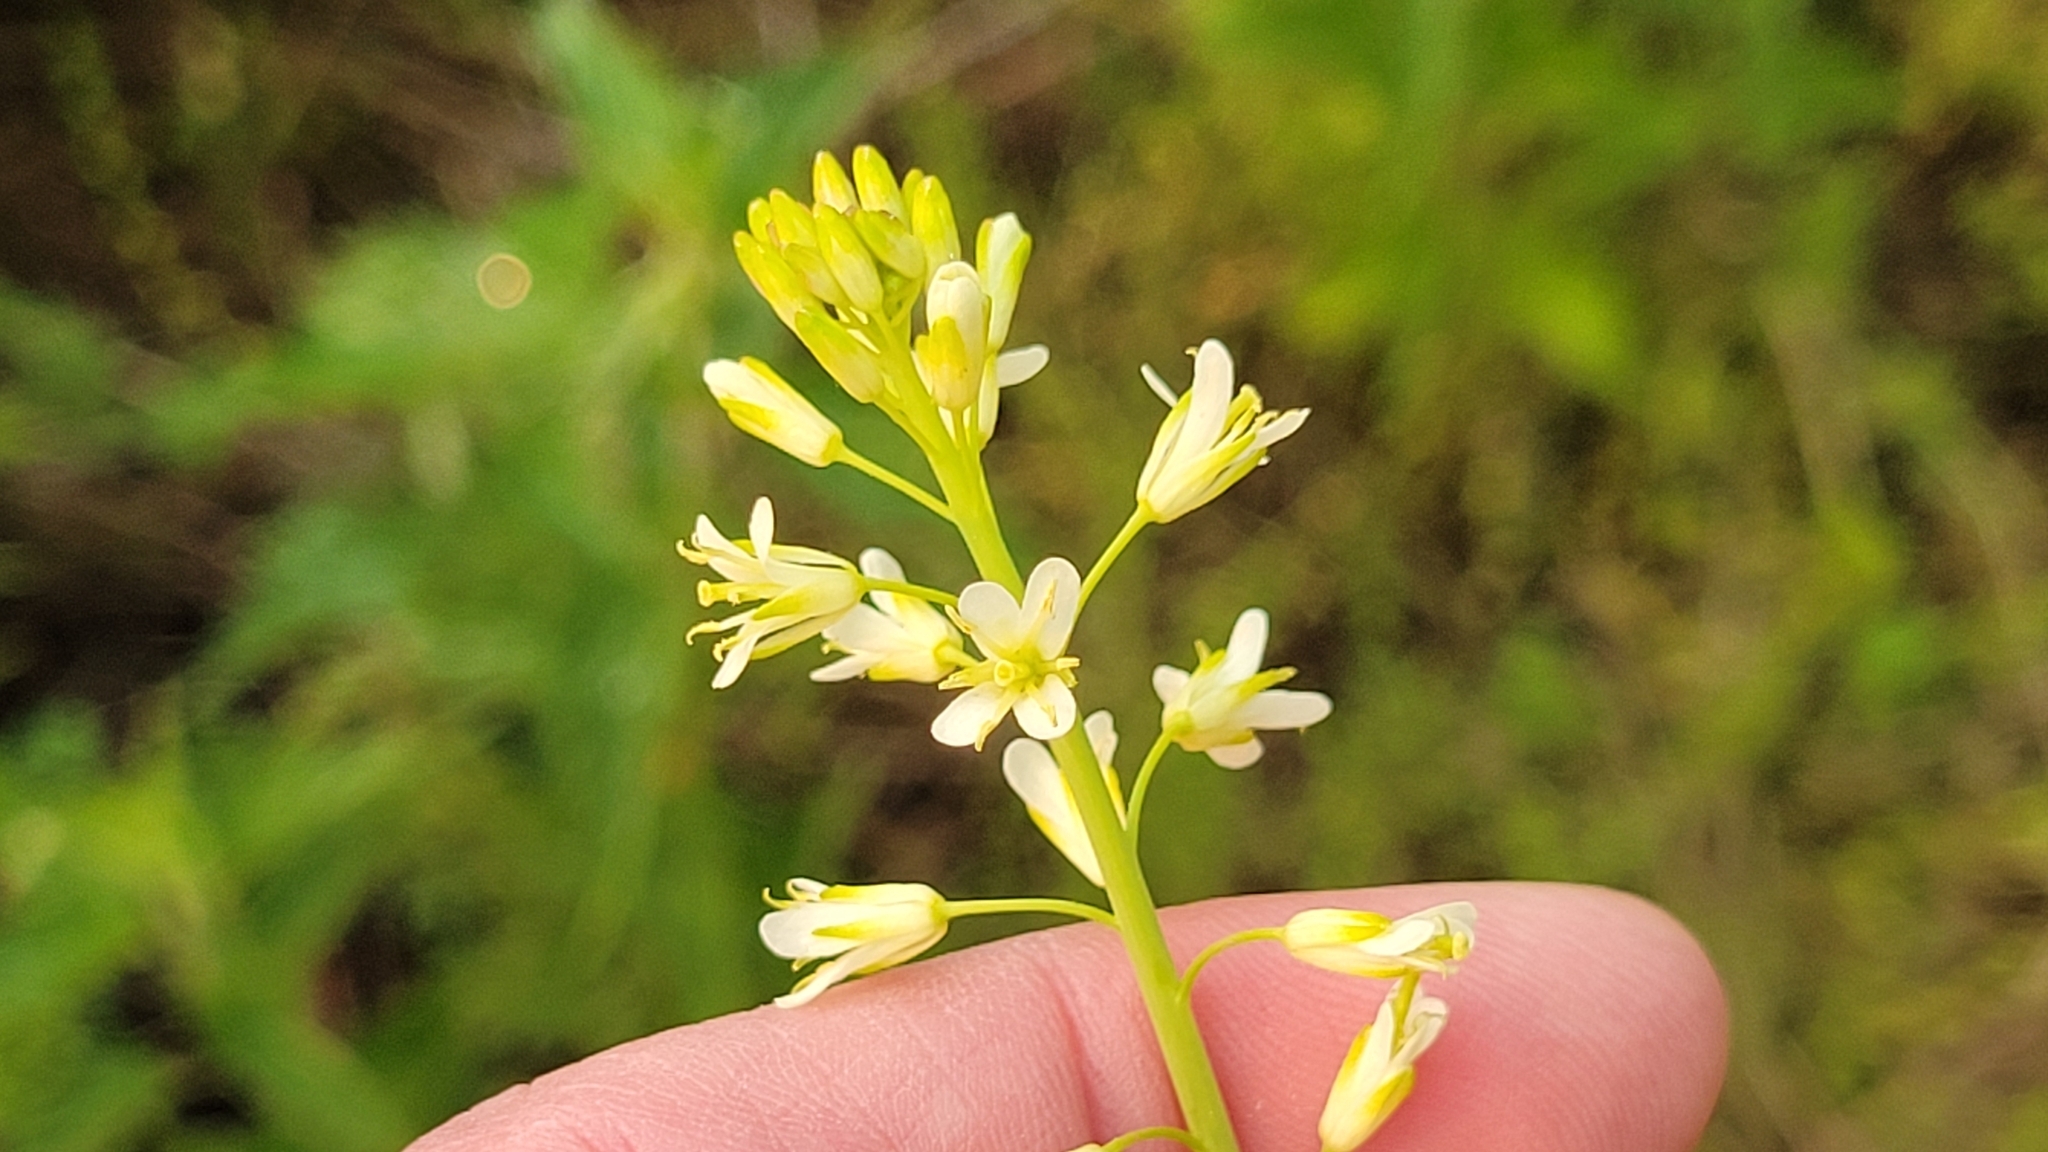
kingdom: Plantae
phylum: Tracheophyta
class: Magnoliopsida
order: Brassicales
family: Brassicaceae
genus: Turritis
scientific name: Turritis glabra
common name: Tower rockcress
